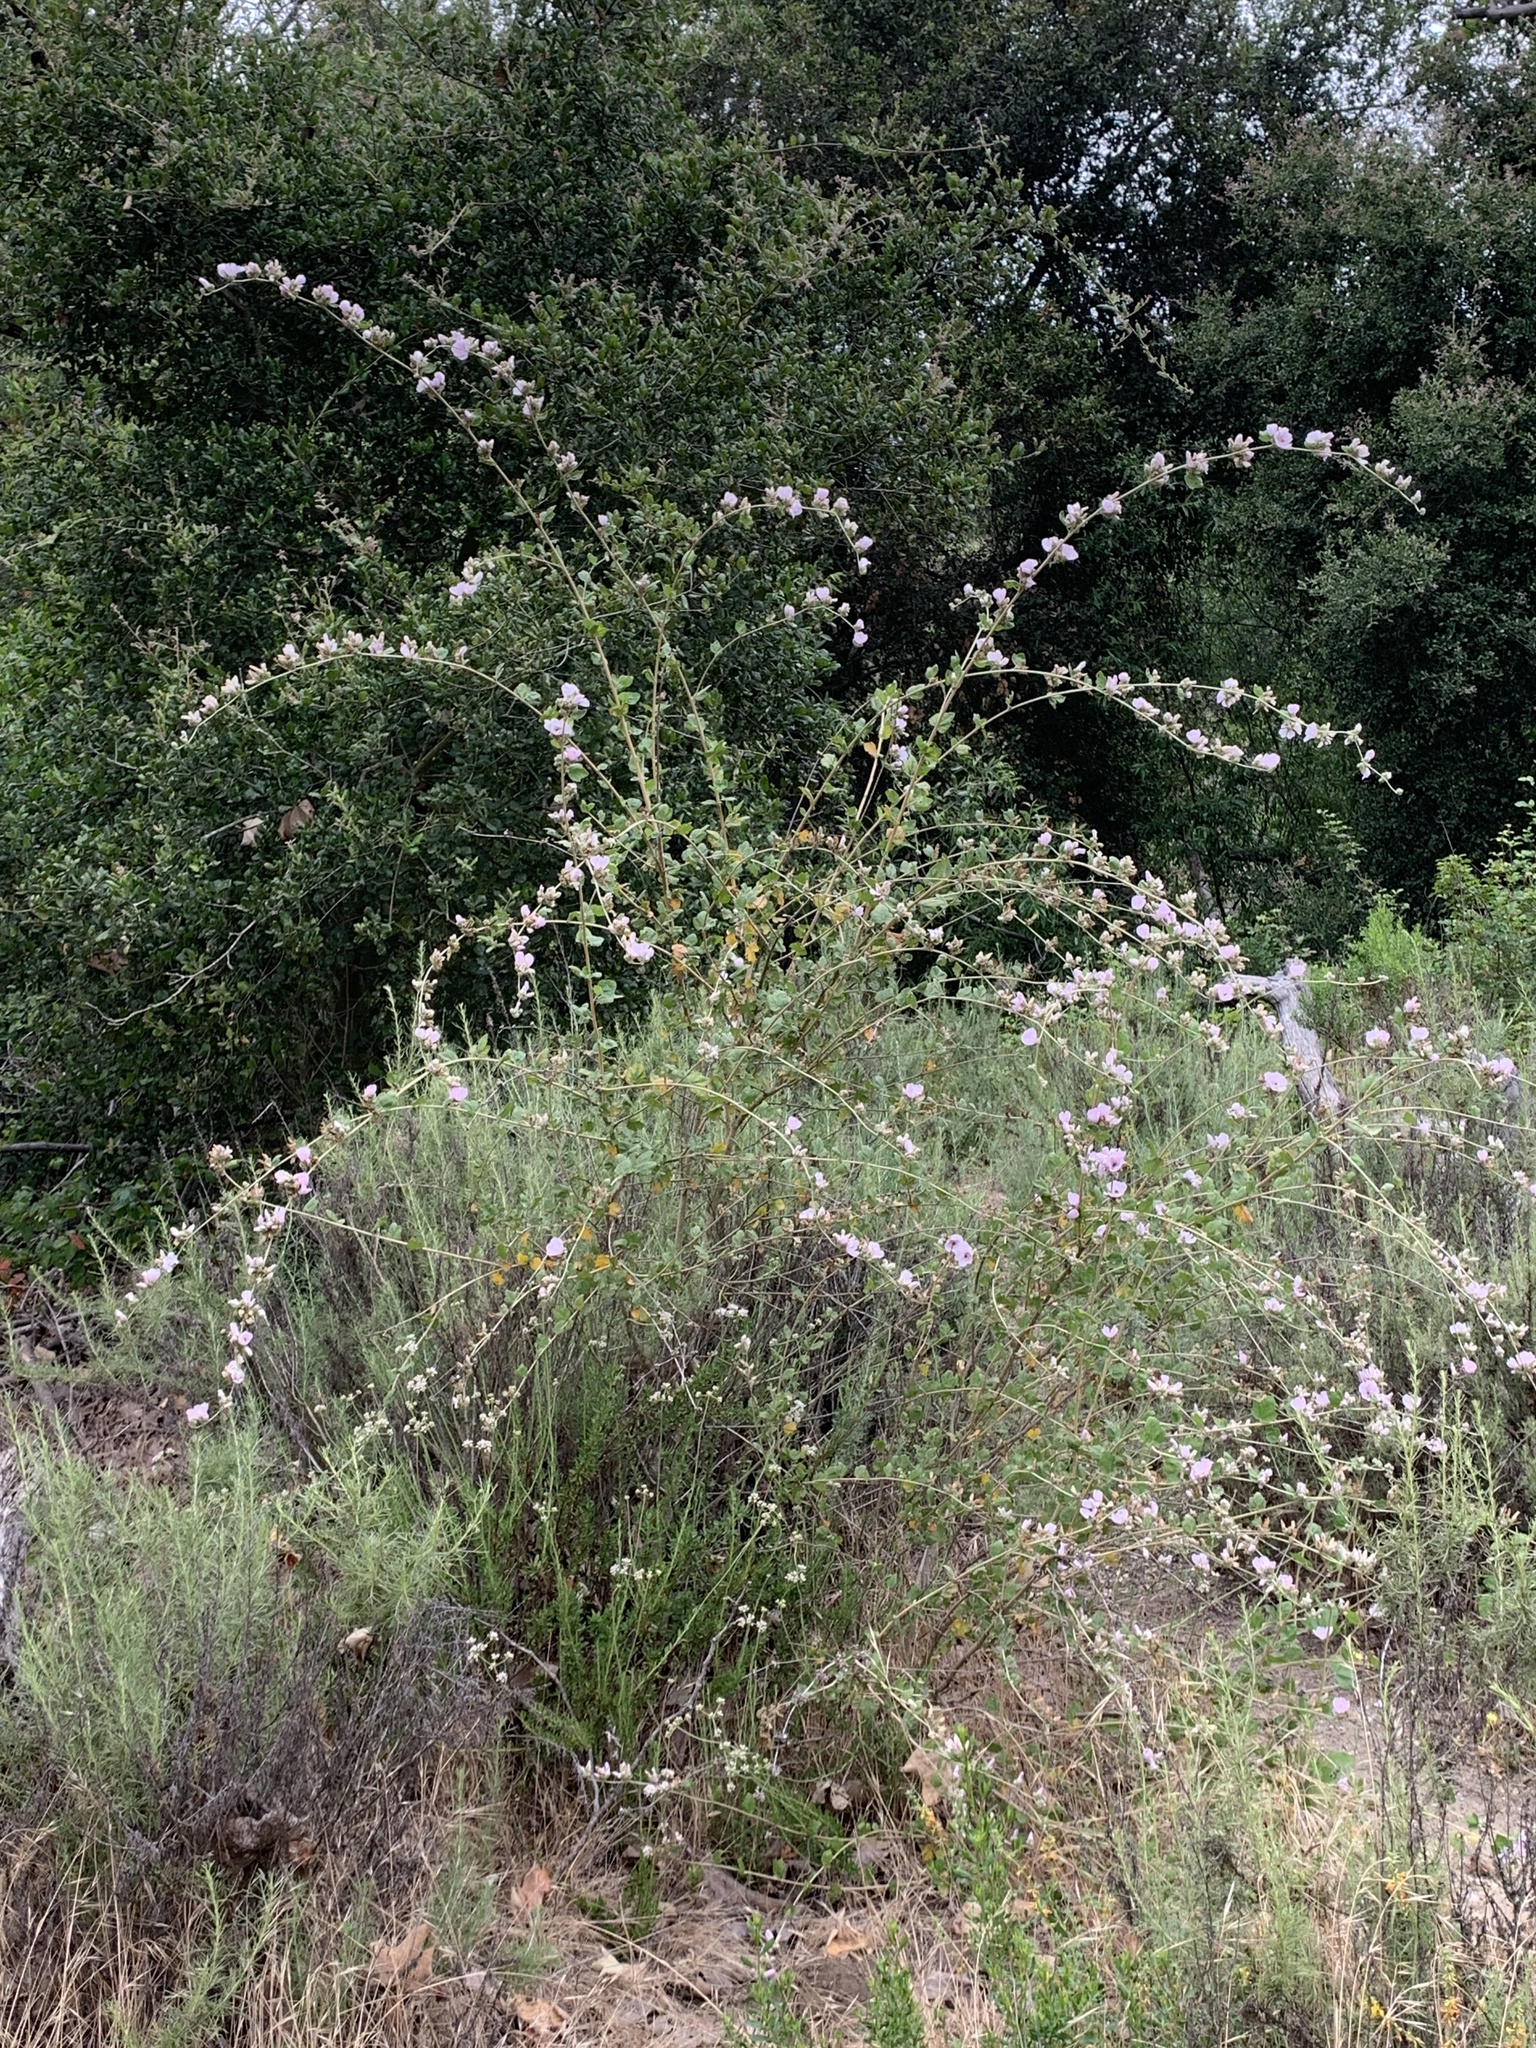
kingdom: Plantae
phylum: Tracheophyta
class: Magnoliopsida
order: Malvales
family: Malvaceae
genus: Malacothamnus
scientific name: Malacothamnus fasciculatus
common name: Sant cruz island bush-mallow
